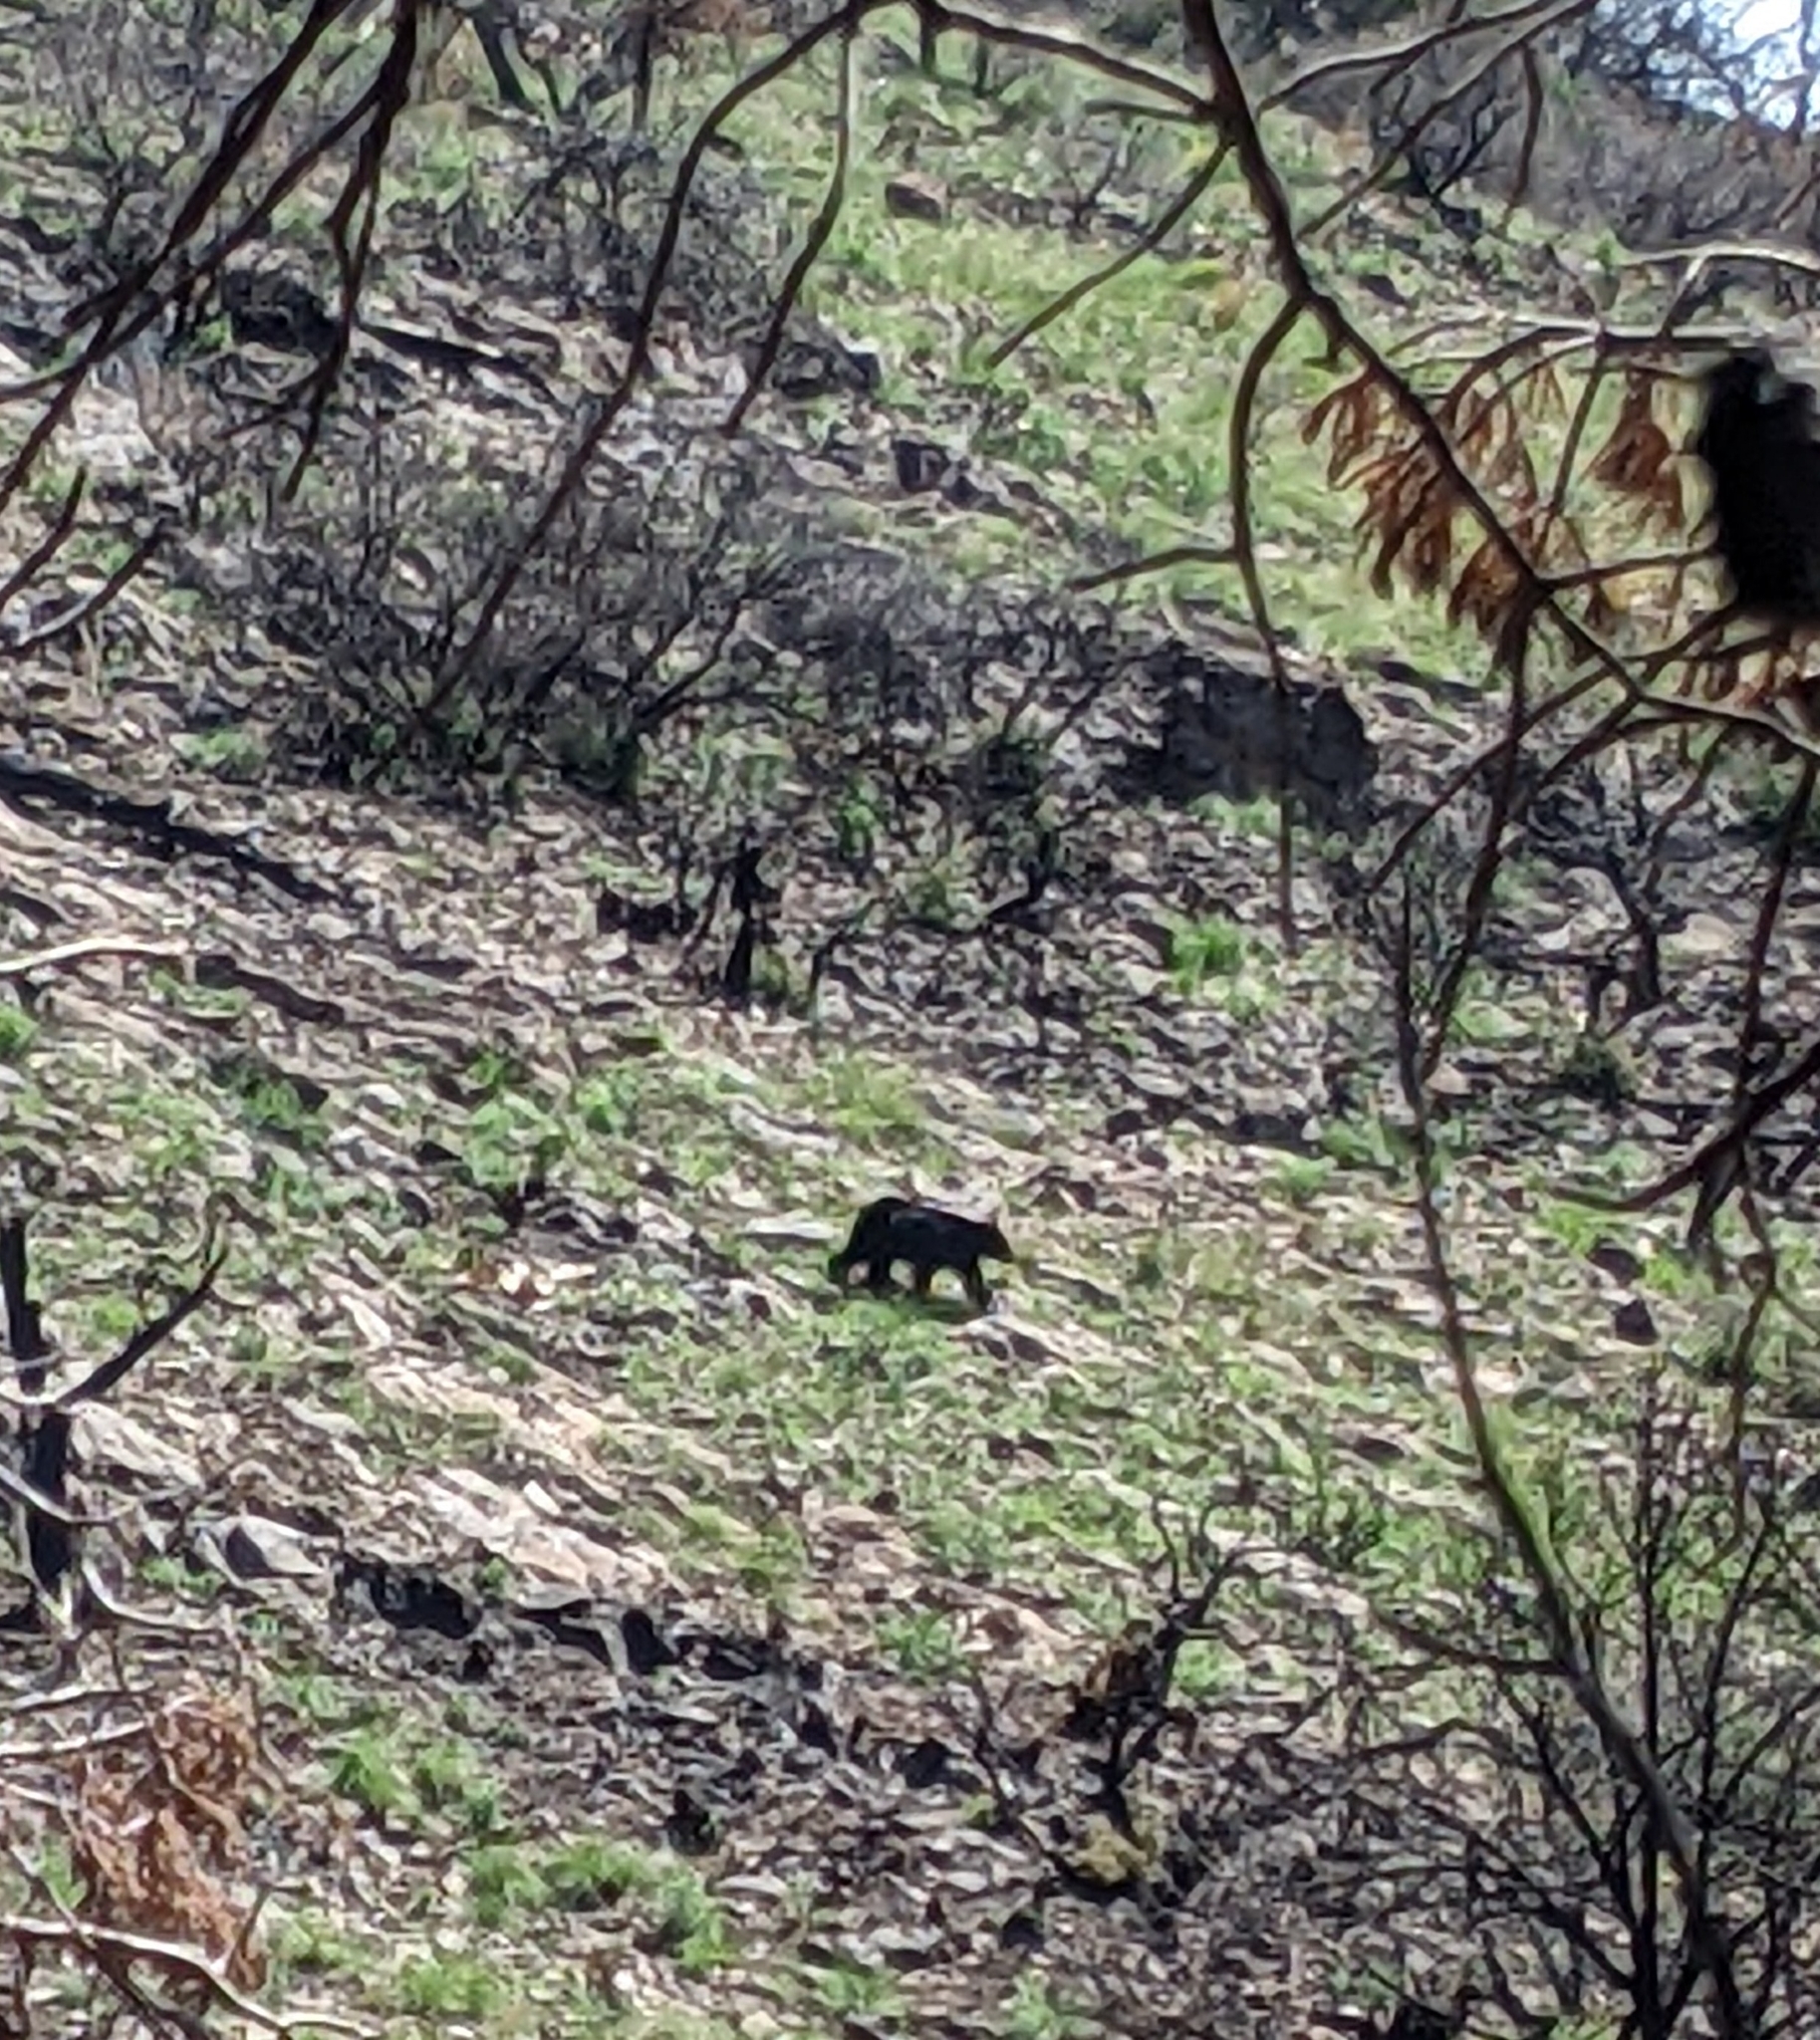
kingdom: Animalia
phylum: Chordata
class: Mammalia
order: Carnivora
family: Ursidae
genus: Ursus
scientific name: Ursus americanus
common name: American black bear
